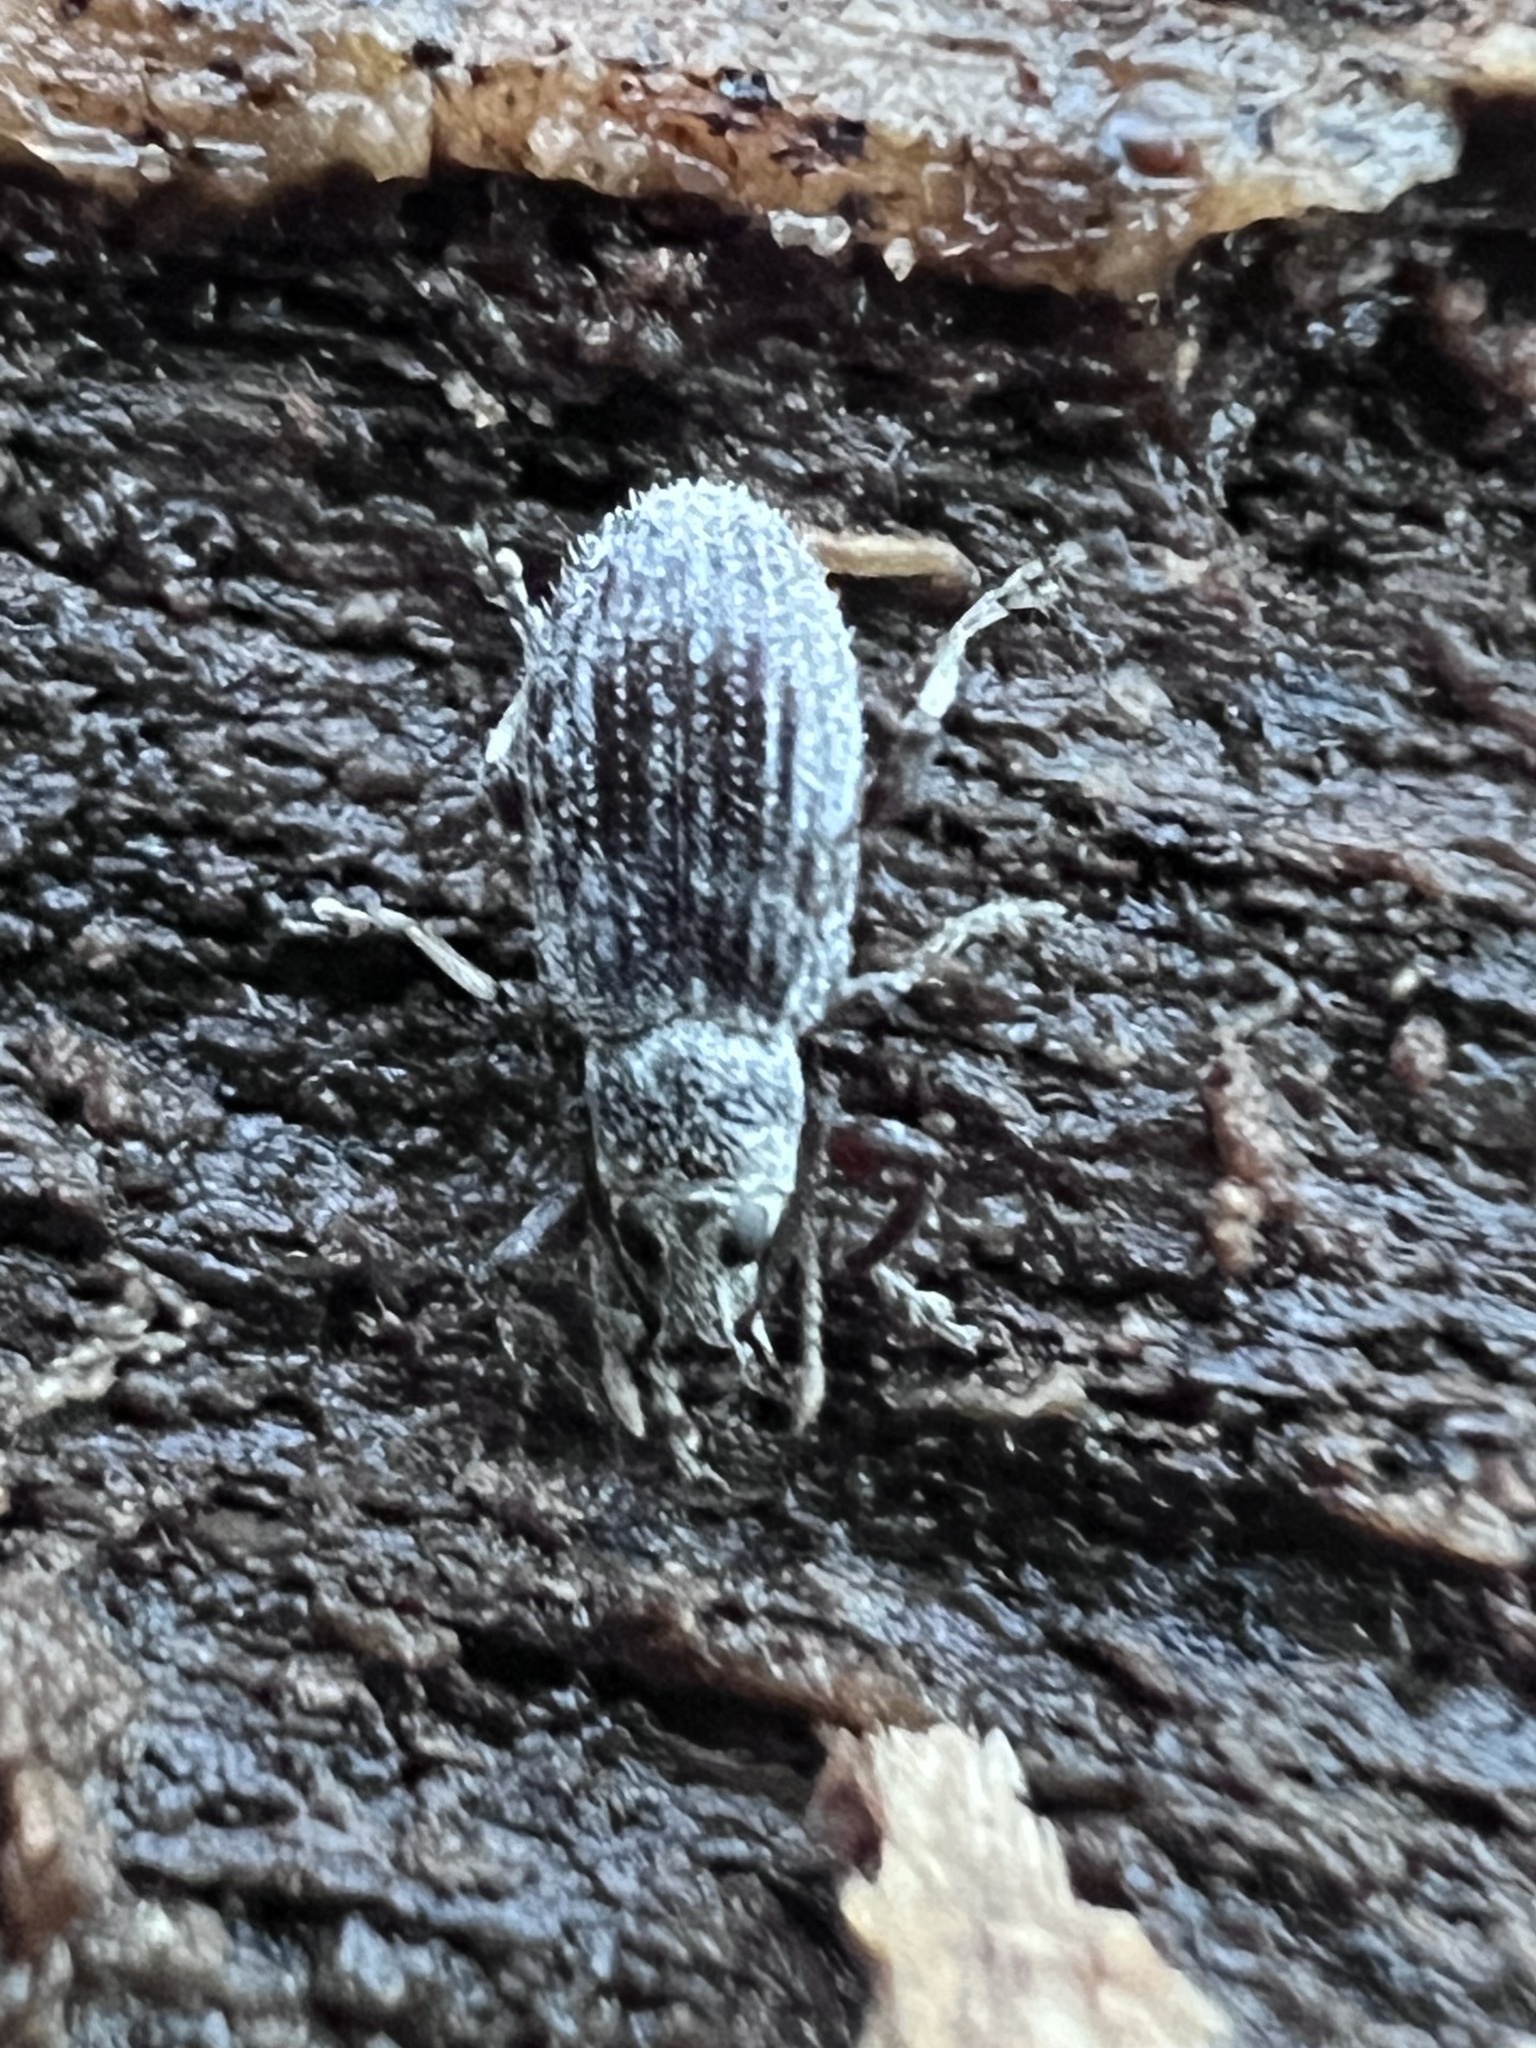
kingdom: Animalia
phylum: Arthropoda
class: Insecta
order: Coleoptera
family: Curculionidae
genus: Cyrtepistomus
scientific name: Cyrtepistomus castaneus
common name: Weevil
